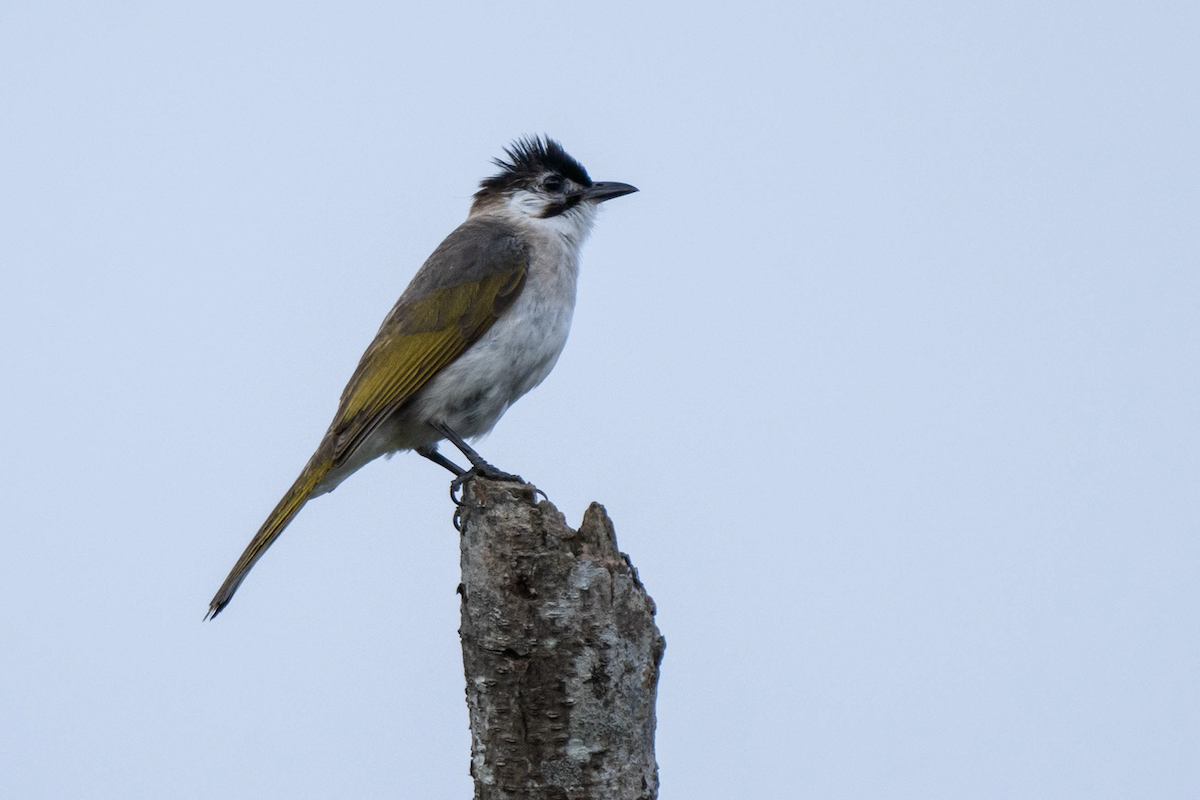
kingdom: Animalia
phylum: Chordata
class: Aves
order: Passeriformes
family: Pycnonotidae
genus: Pycnonotus
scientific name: Pycnonotus taivanus
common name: Styan's bulbul
